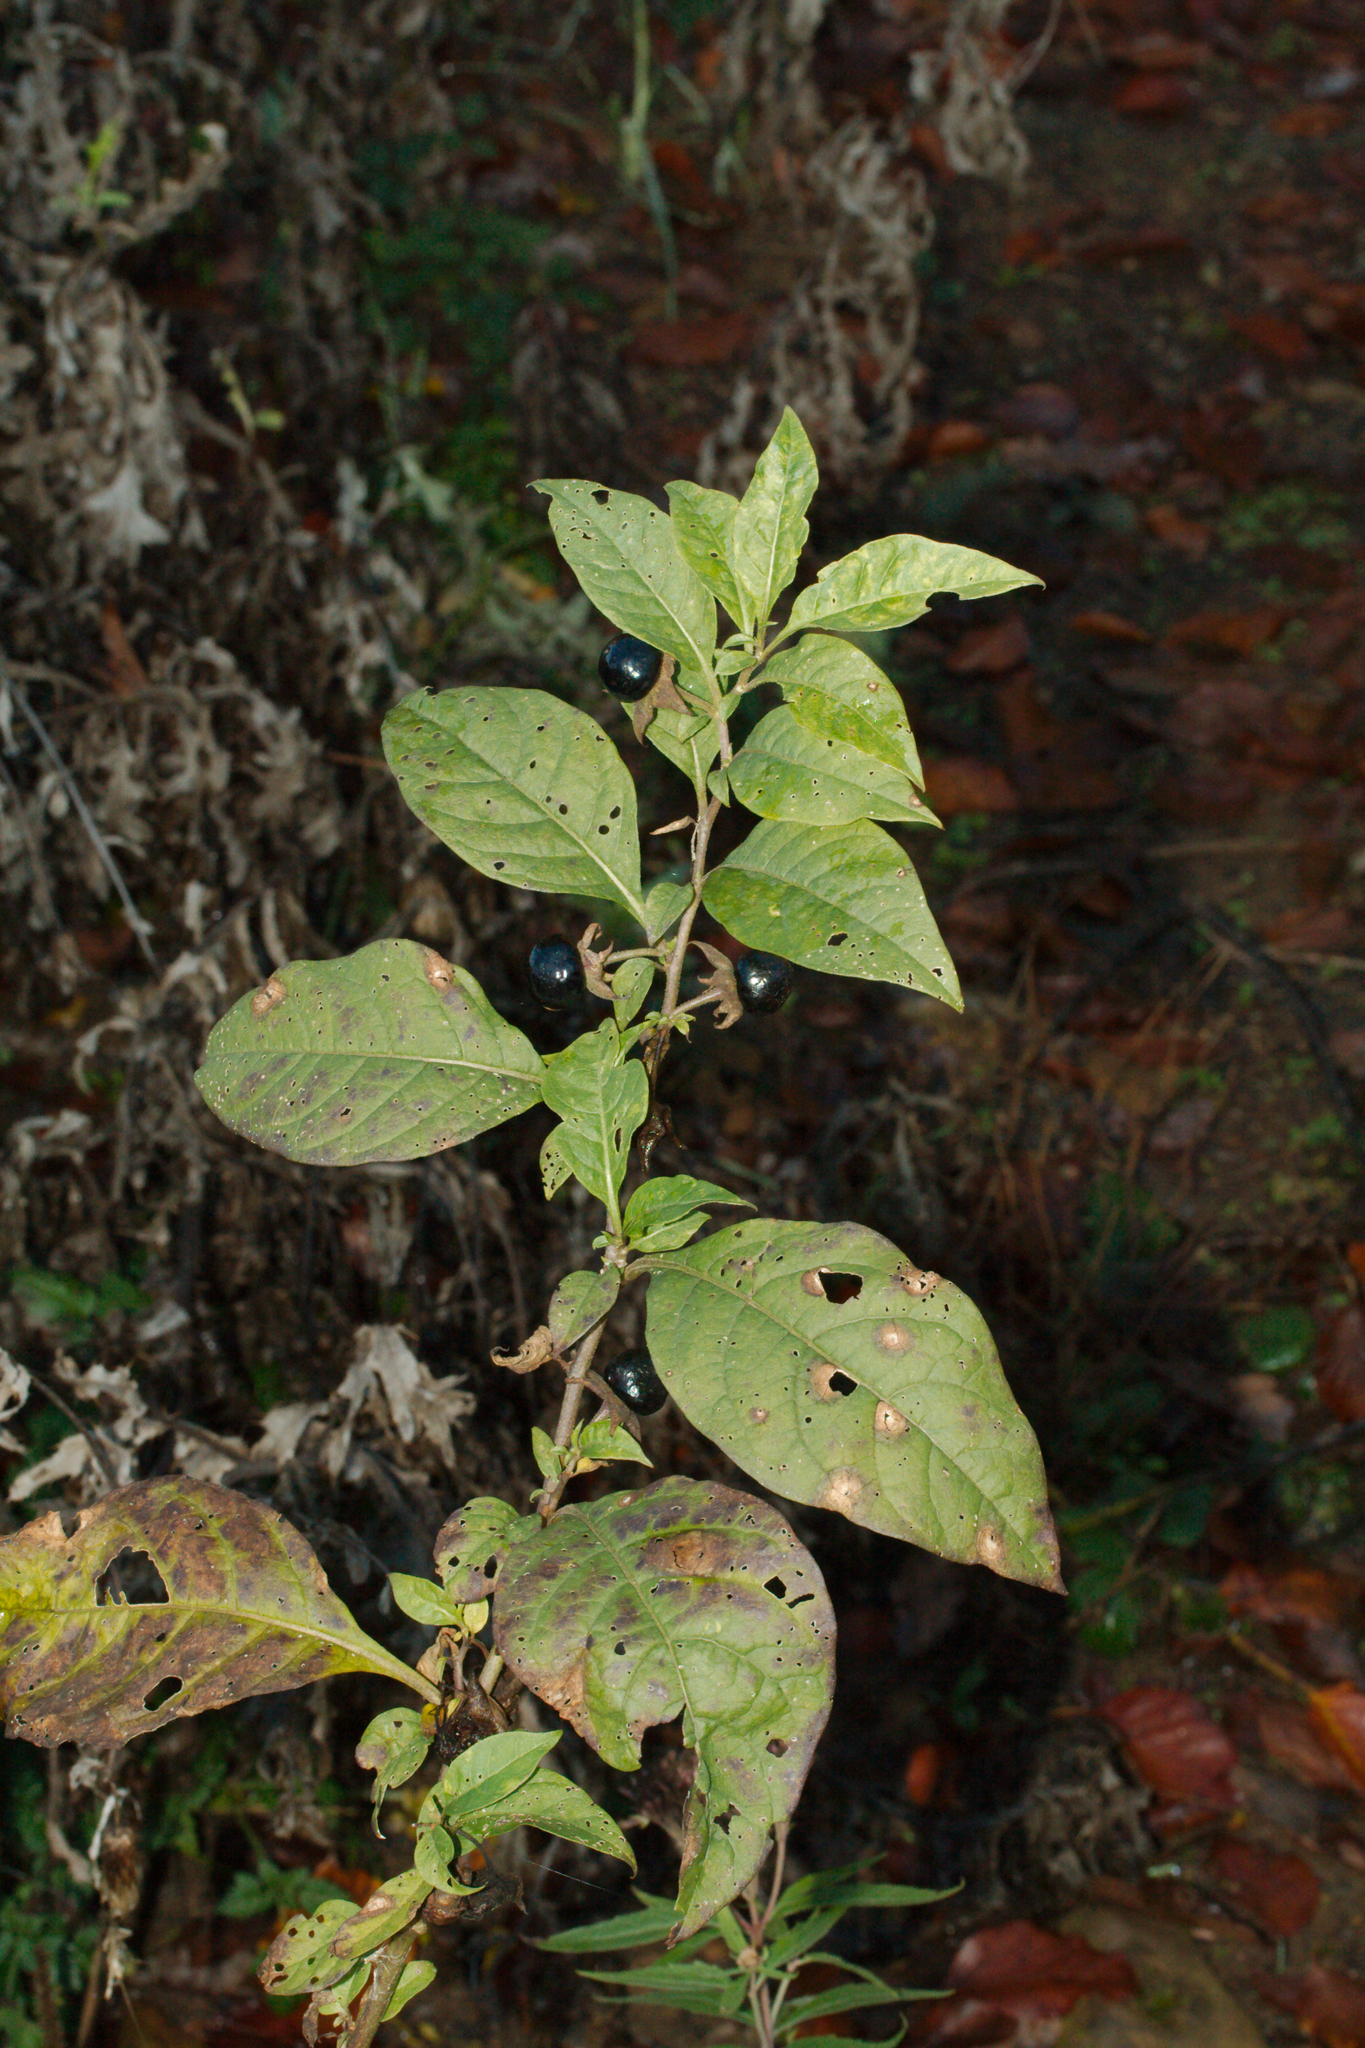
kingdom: Plantae
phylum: Tracheophyta
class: Magnoliopsida
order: Solanales
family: Solanaceae
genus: Atropa
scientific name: Atropa belladonna
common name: Deadly nightshade
